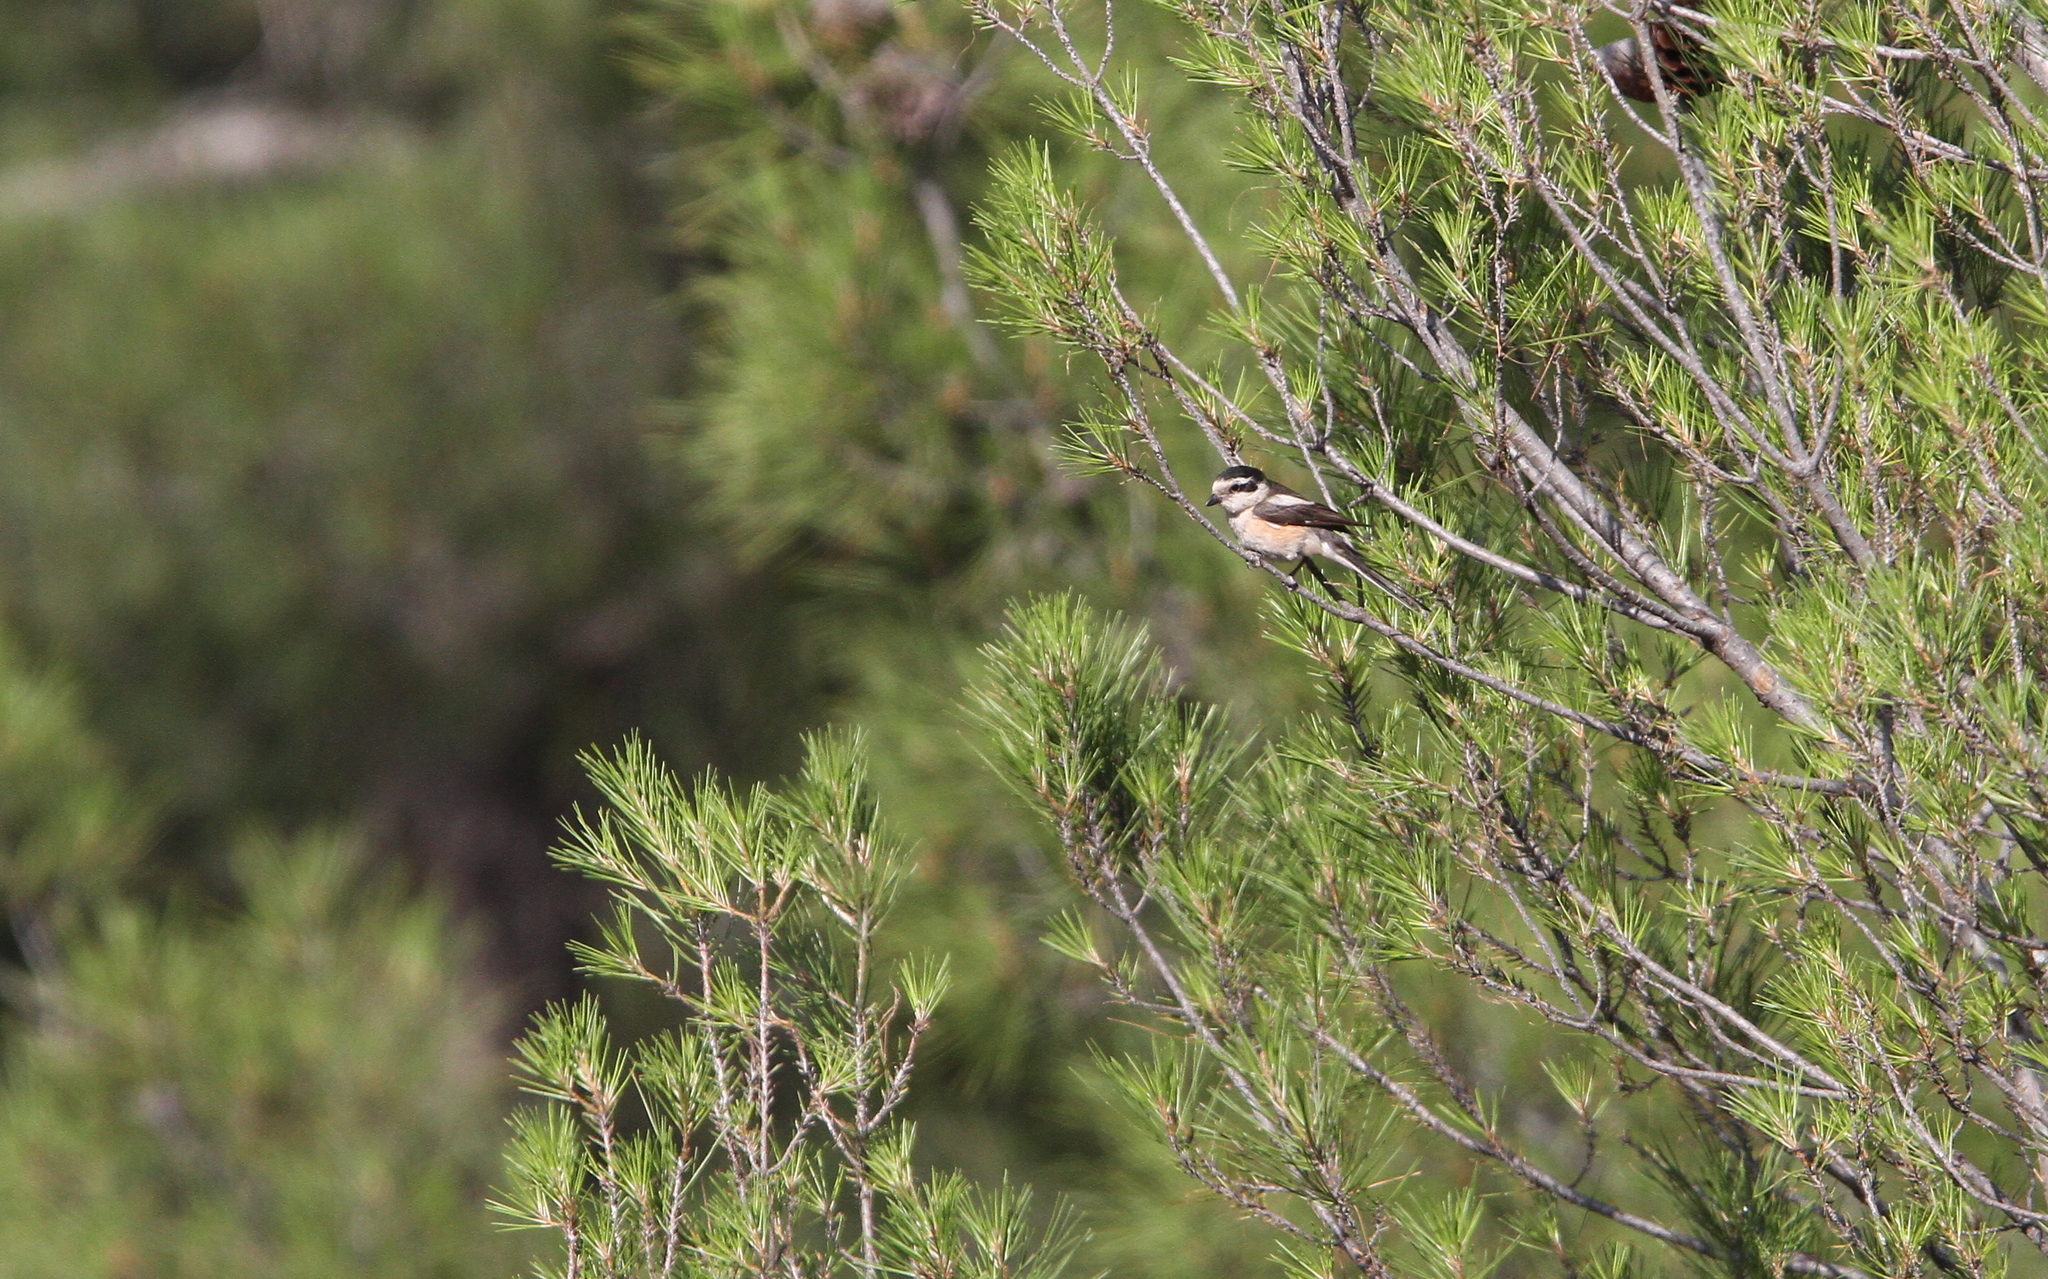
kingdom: Animalia
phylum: Chordata
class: Aves
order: Passeriformes
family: Laniidae
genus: Lanius
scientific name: Lanius nubicus
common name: Masked shrike
